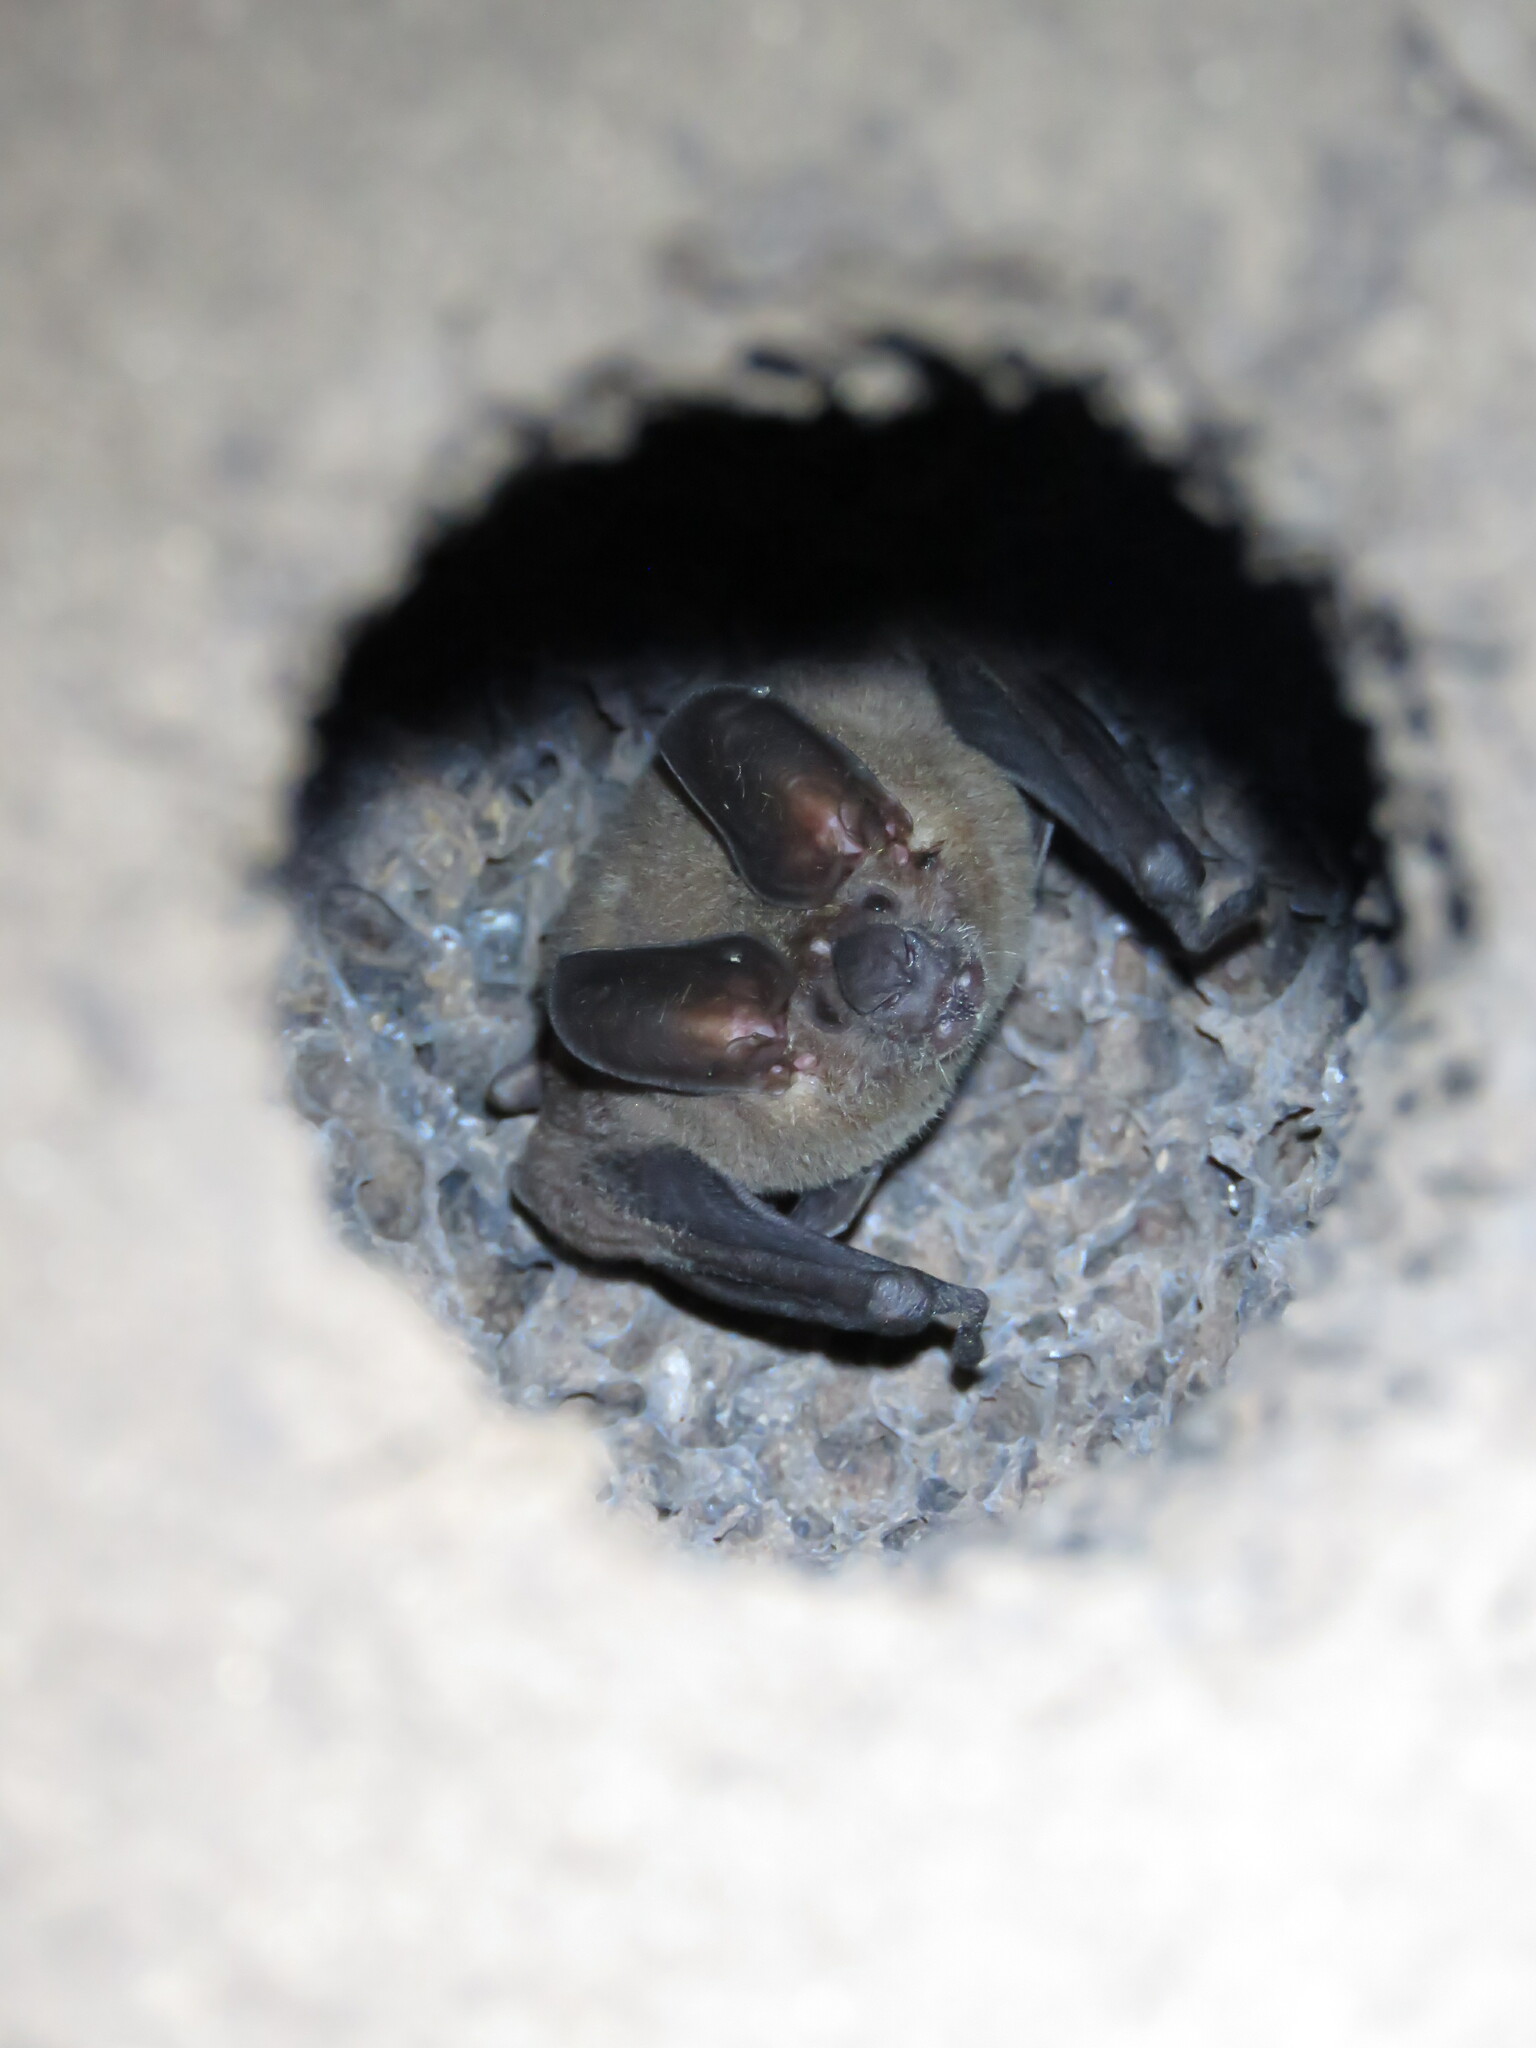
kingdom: Animalia
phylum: Chordata
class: Mammalia
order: Chiroptera
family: Phyllostomidae
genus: Lophostoma
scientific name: Lophostoma
